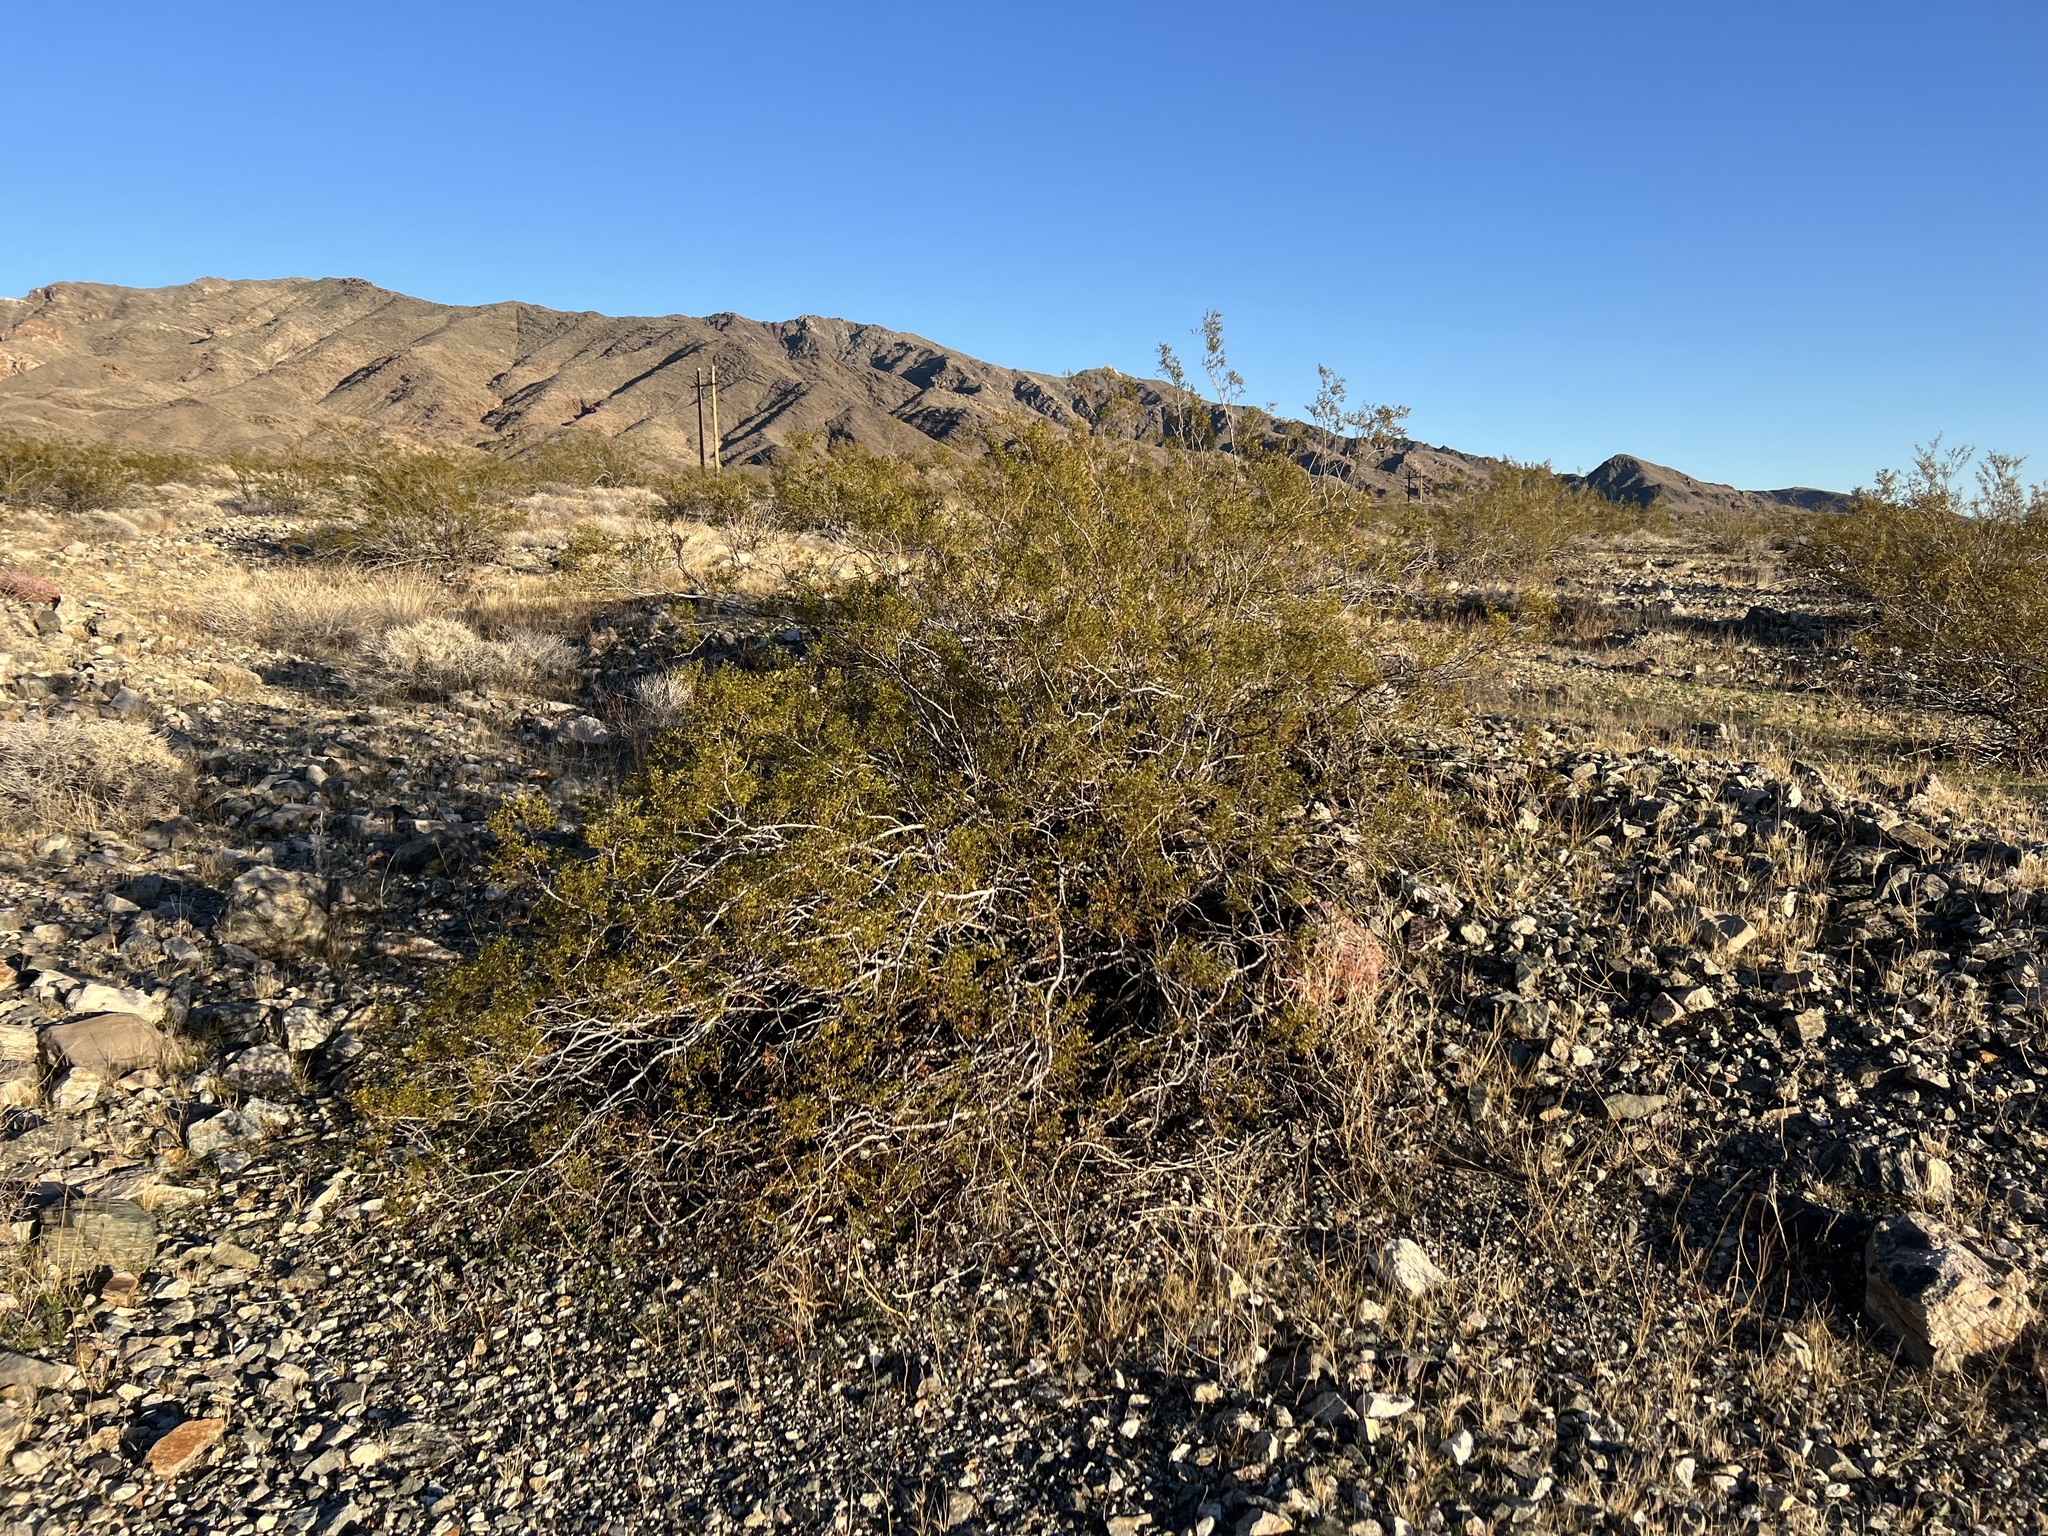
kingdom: Plantae
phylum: Tracheophyta
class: Magnoliopsida
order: Zygophyllales
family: Zygophyllaceae
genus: Larrea
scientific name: Larrea tridentata
